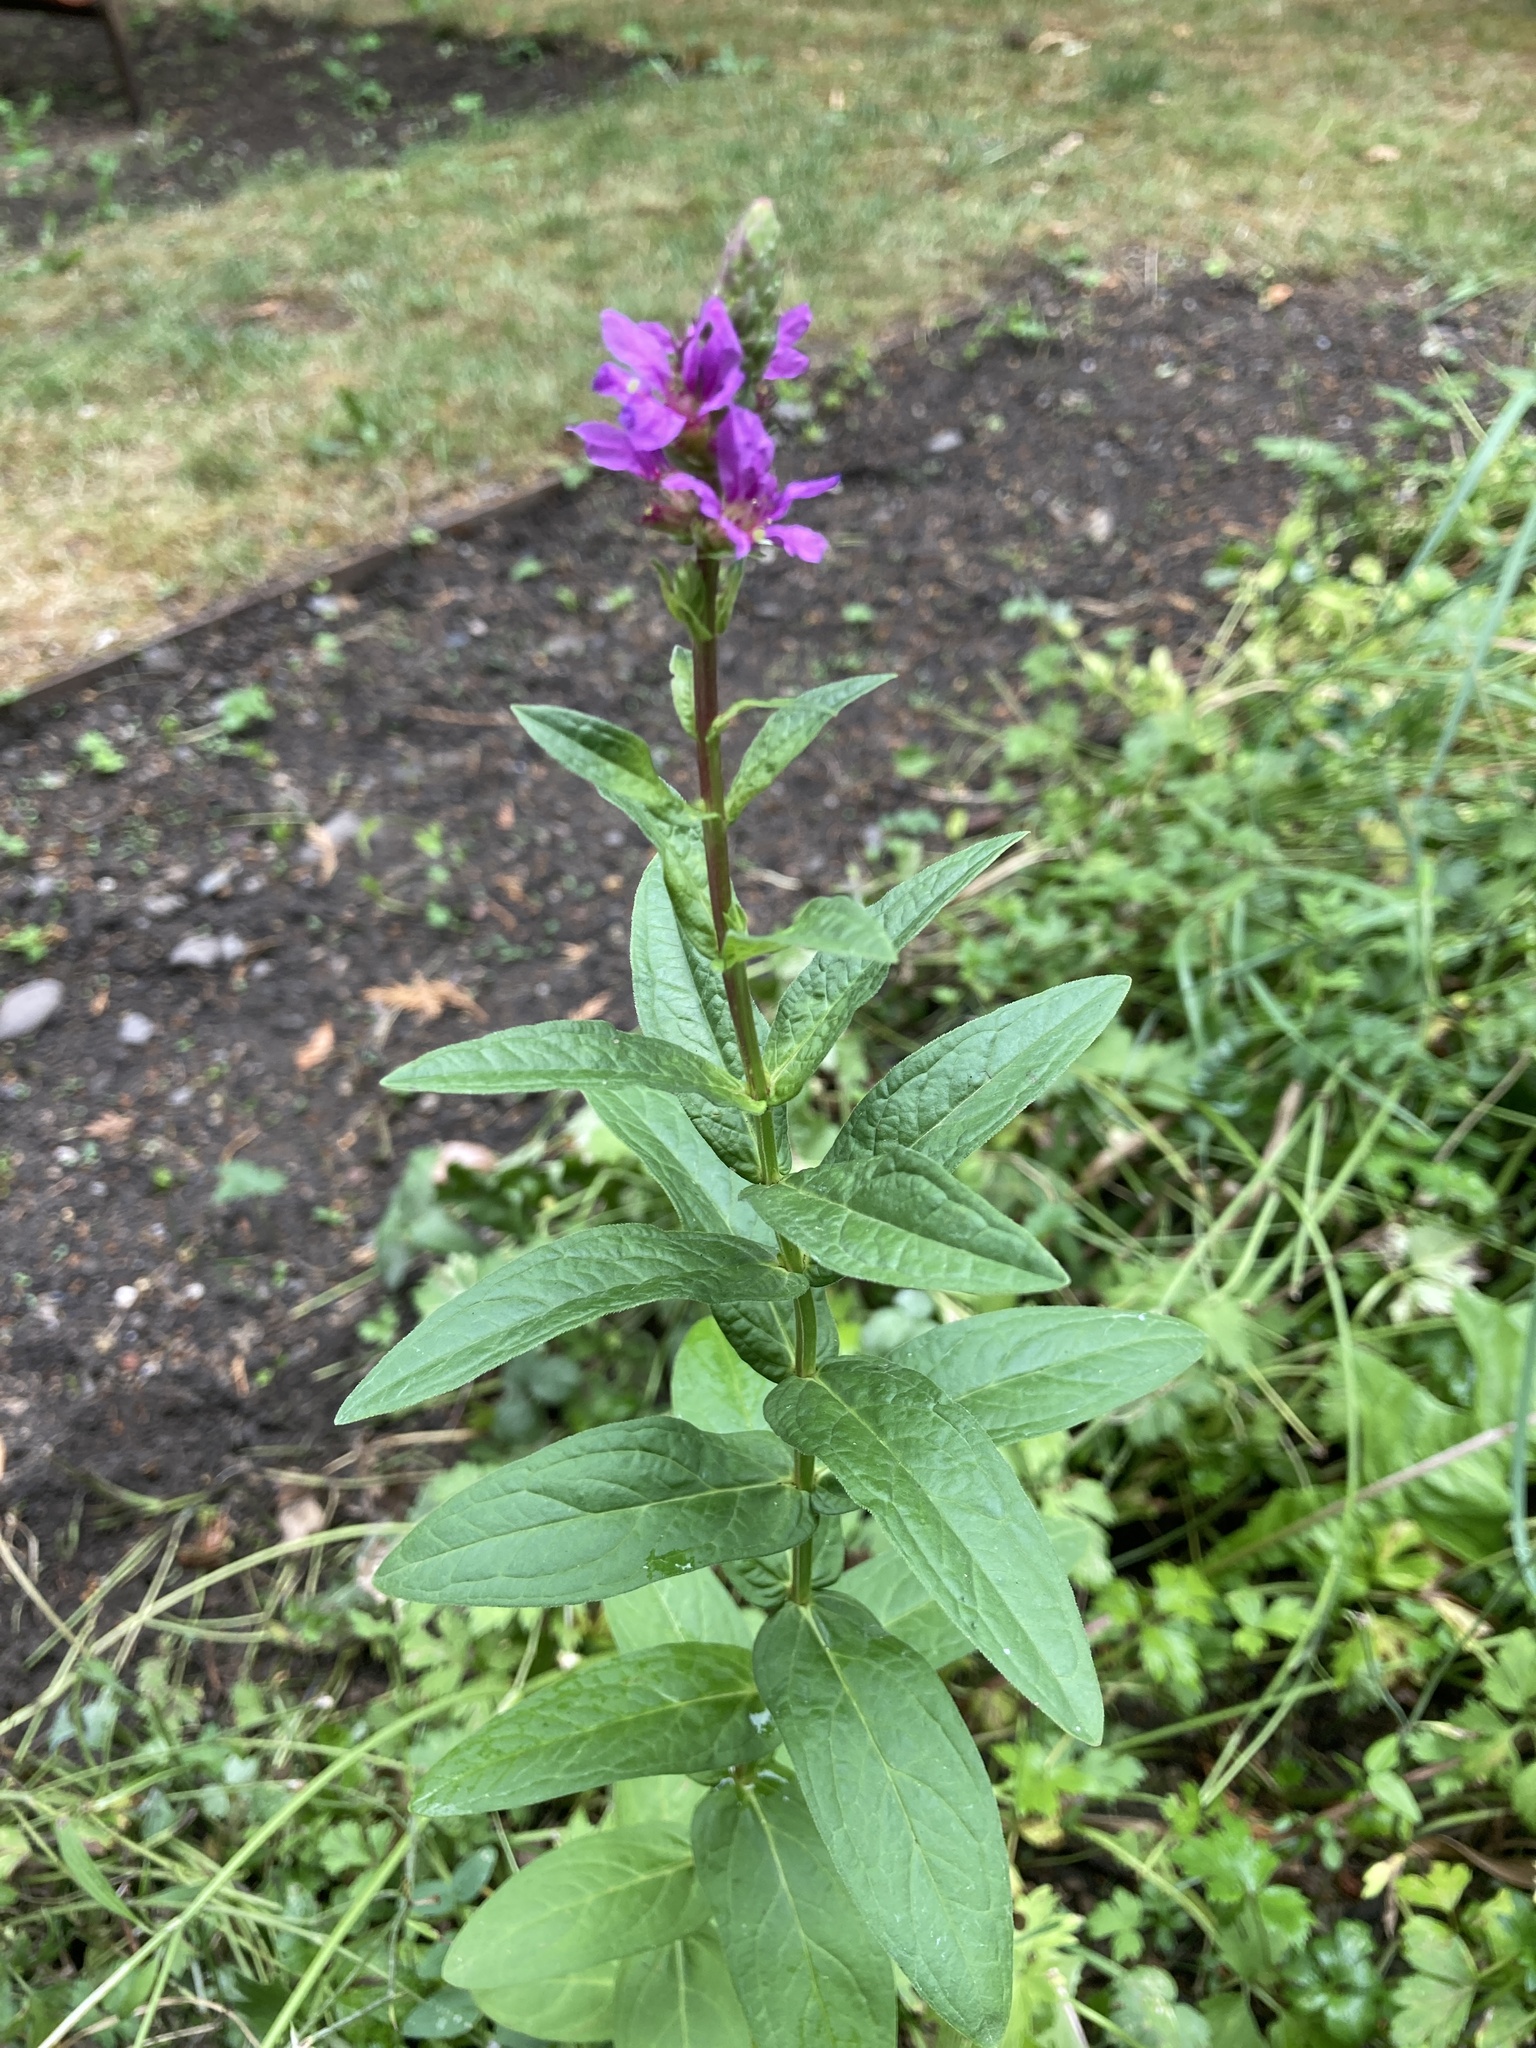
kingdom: Plantae
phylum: Tracheophyta
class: Magnoliopsida
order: Myrtales
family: Lythraceae
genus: Lythrum
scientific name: Lythrum salicaria
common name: Purple loosestrife
